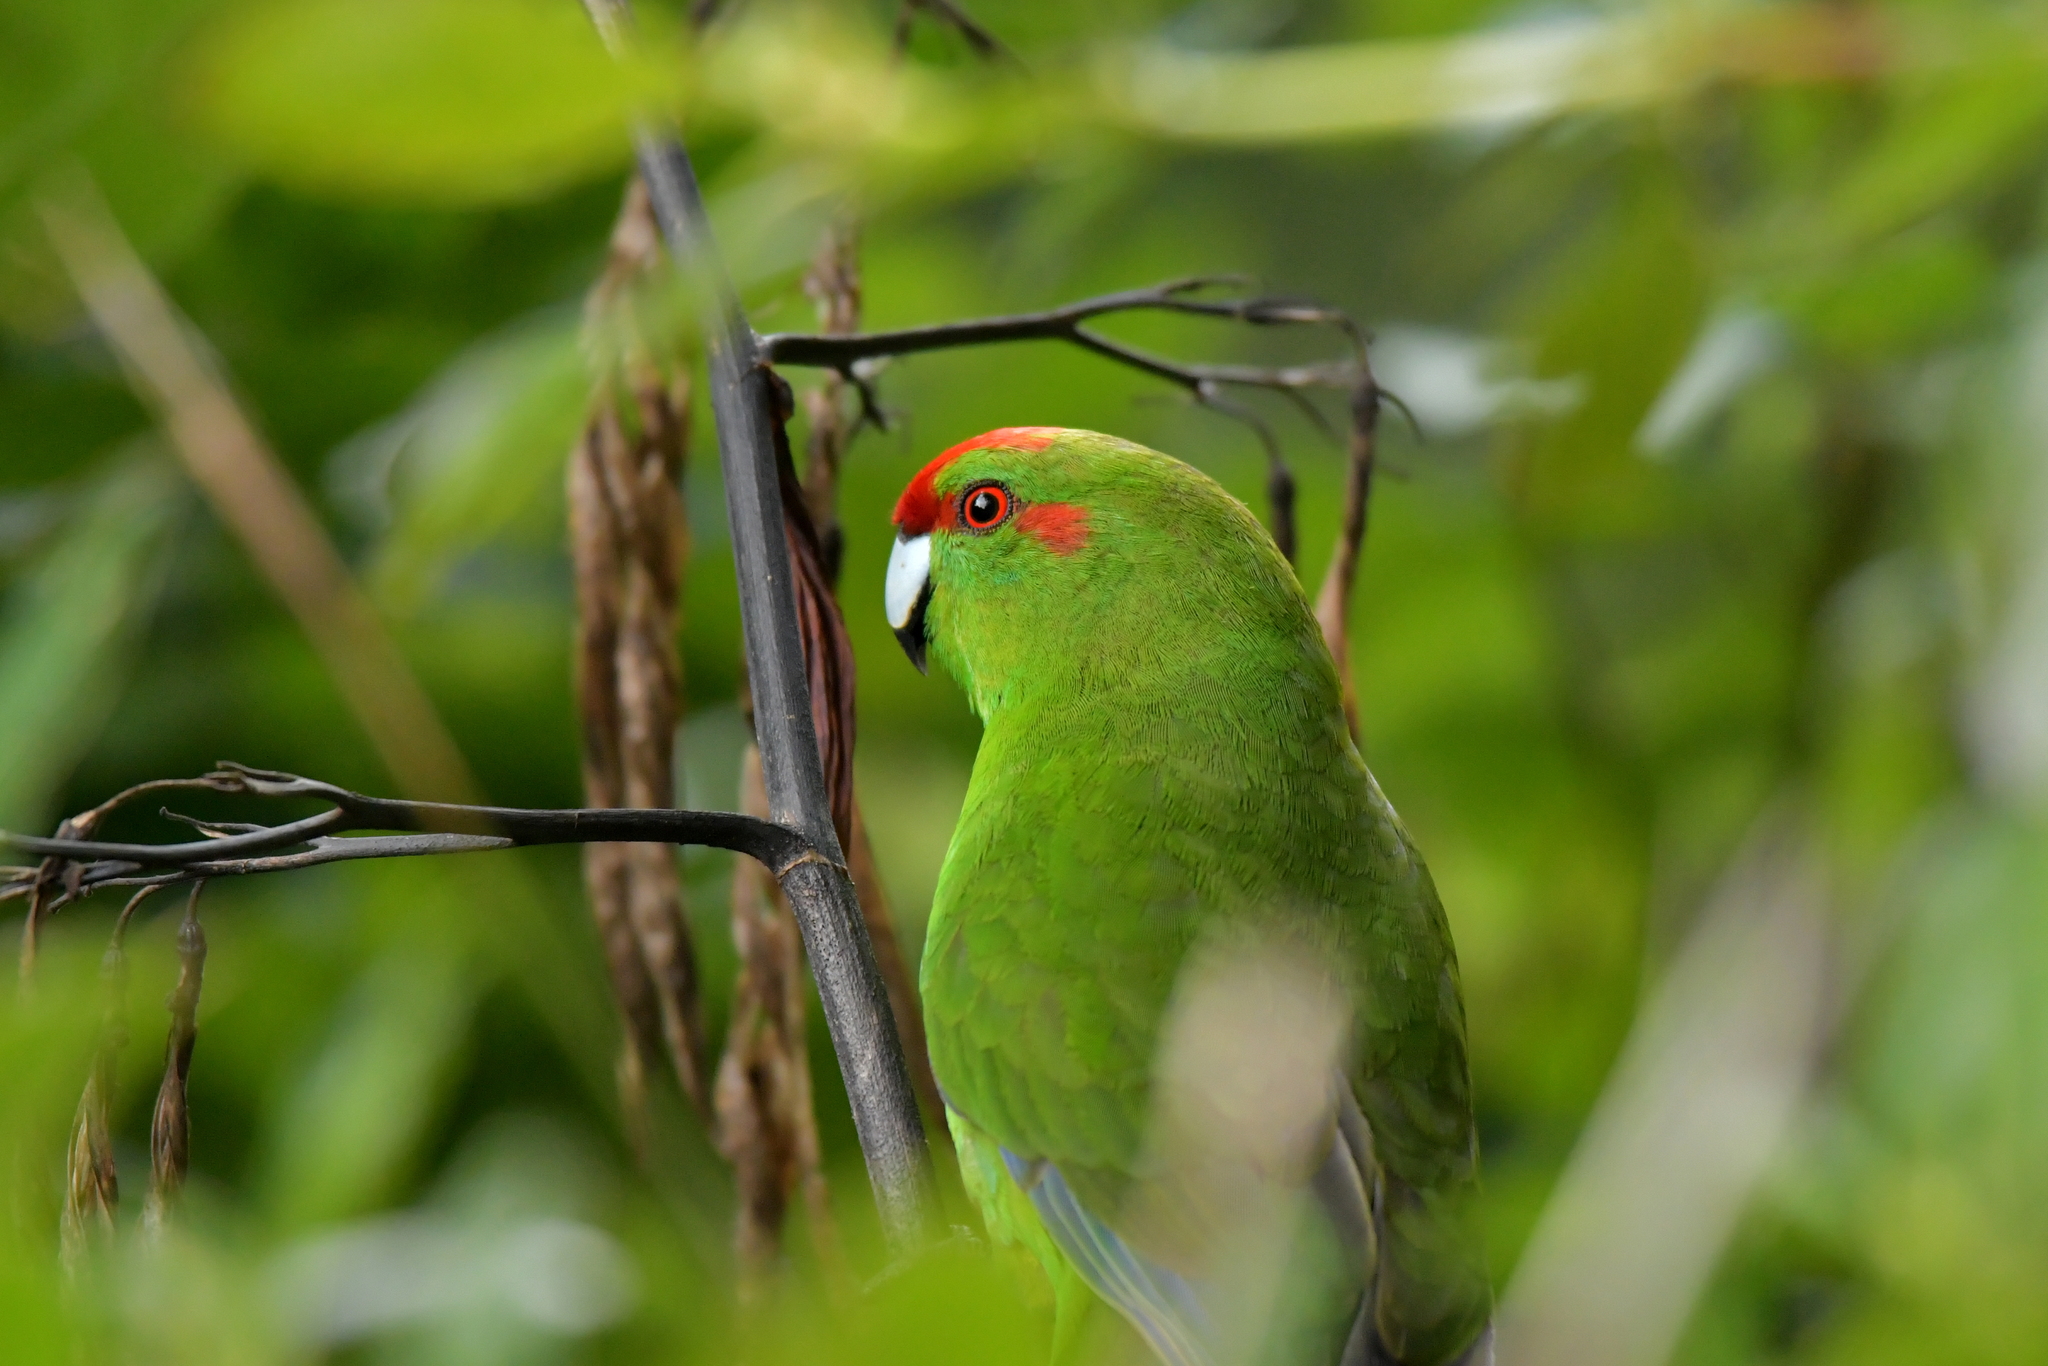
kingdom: Animalia
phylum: Chordata
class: Aves
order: Psittaciformes
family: Psittacidae
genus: Cyanoramphus
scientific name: Cyanoramphus novaezelandiae
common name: Red-fronted parakeet
